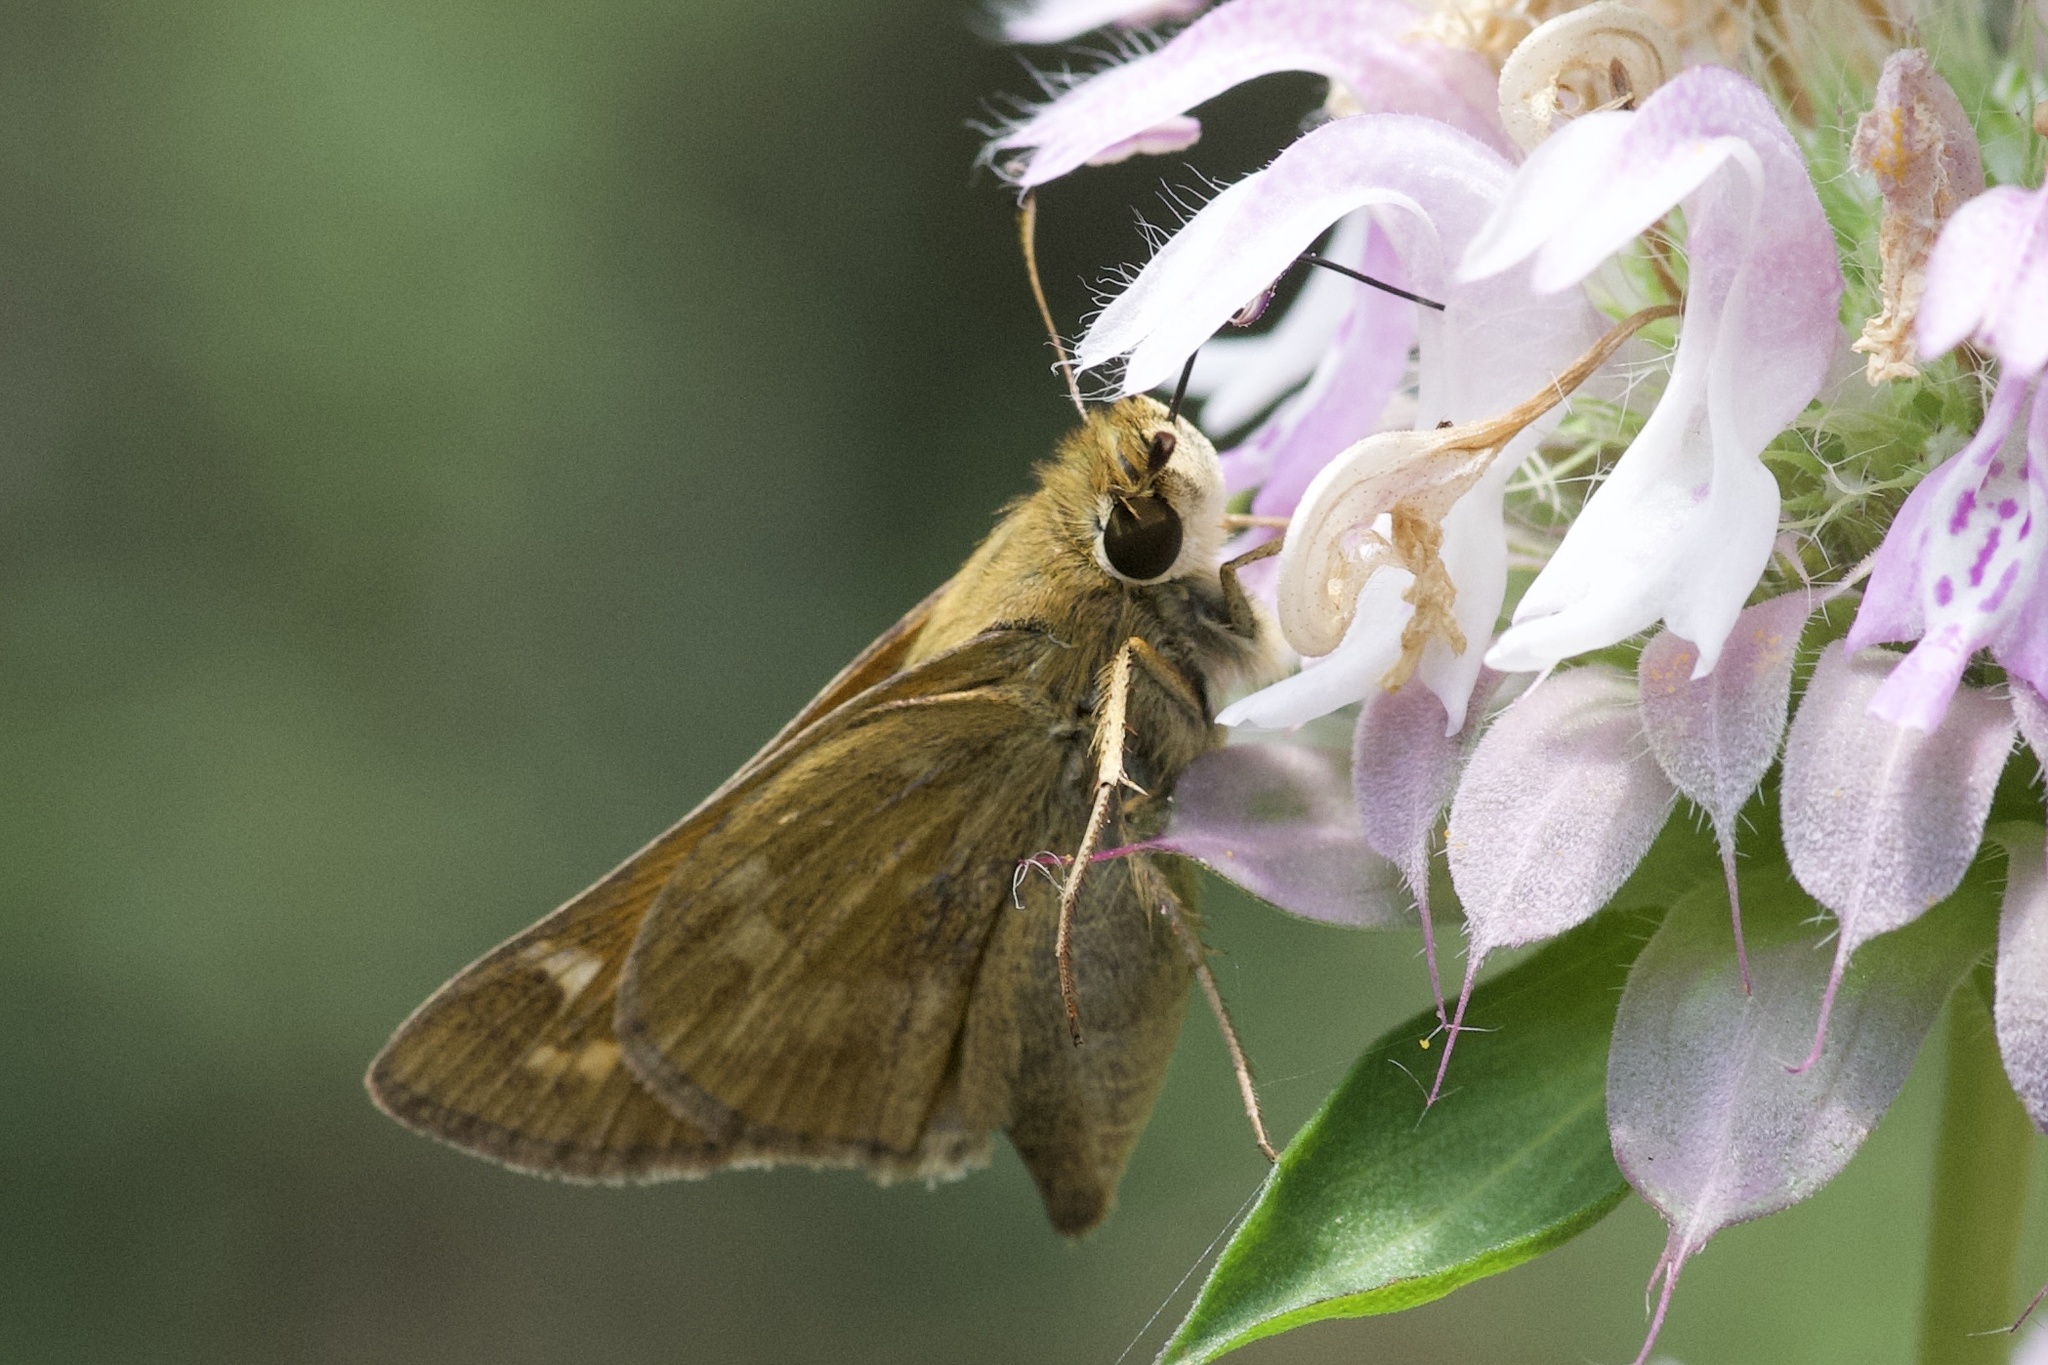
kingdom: Animalia
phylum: Arthropoda
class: Insecta
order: Lepidoptera
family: Hesperiidae
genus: Atalopedes
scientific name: Atalopedes
